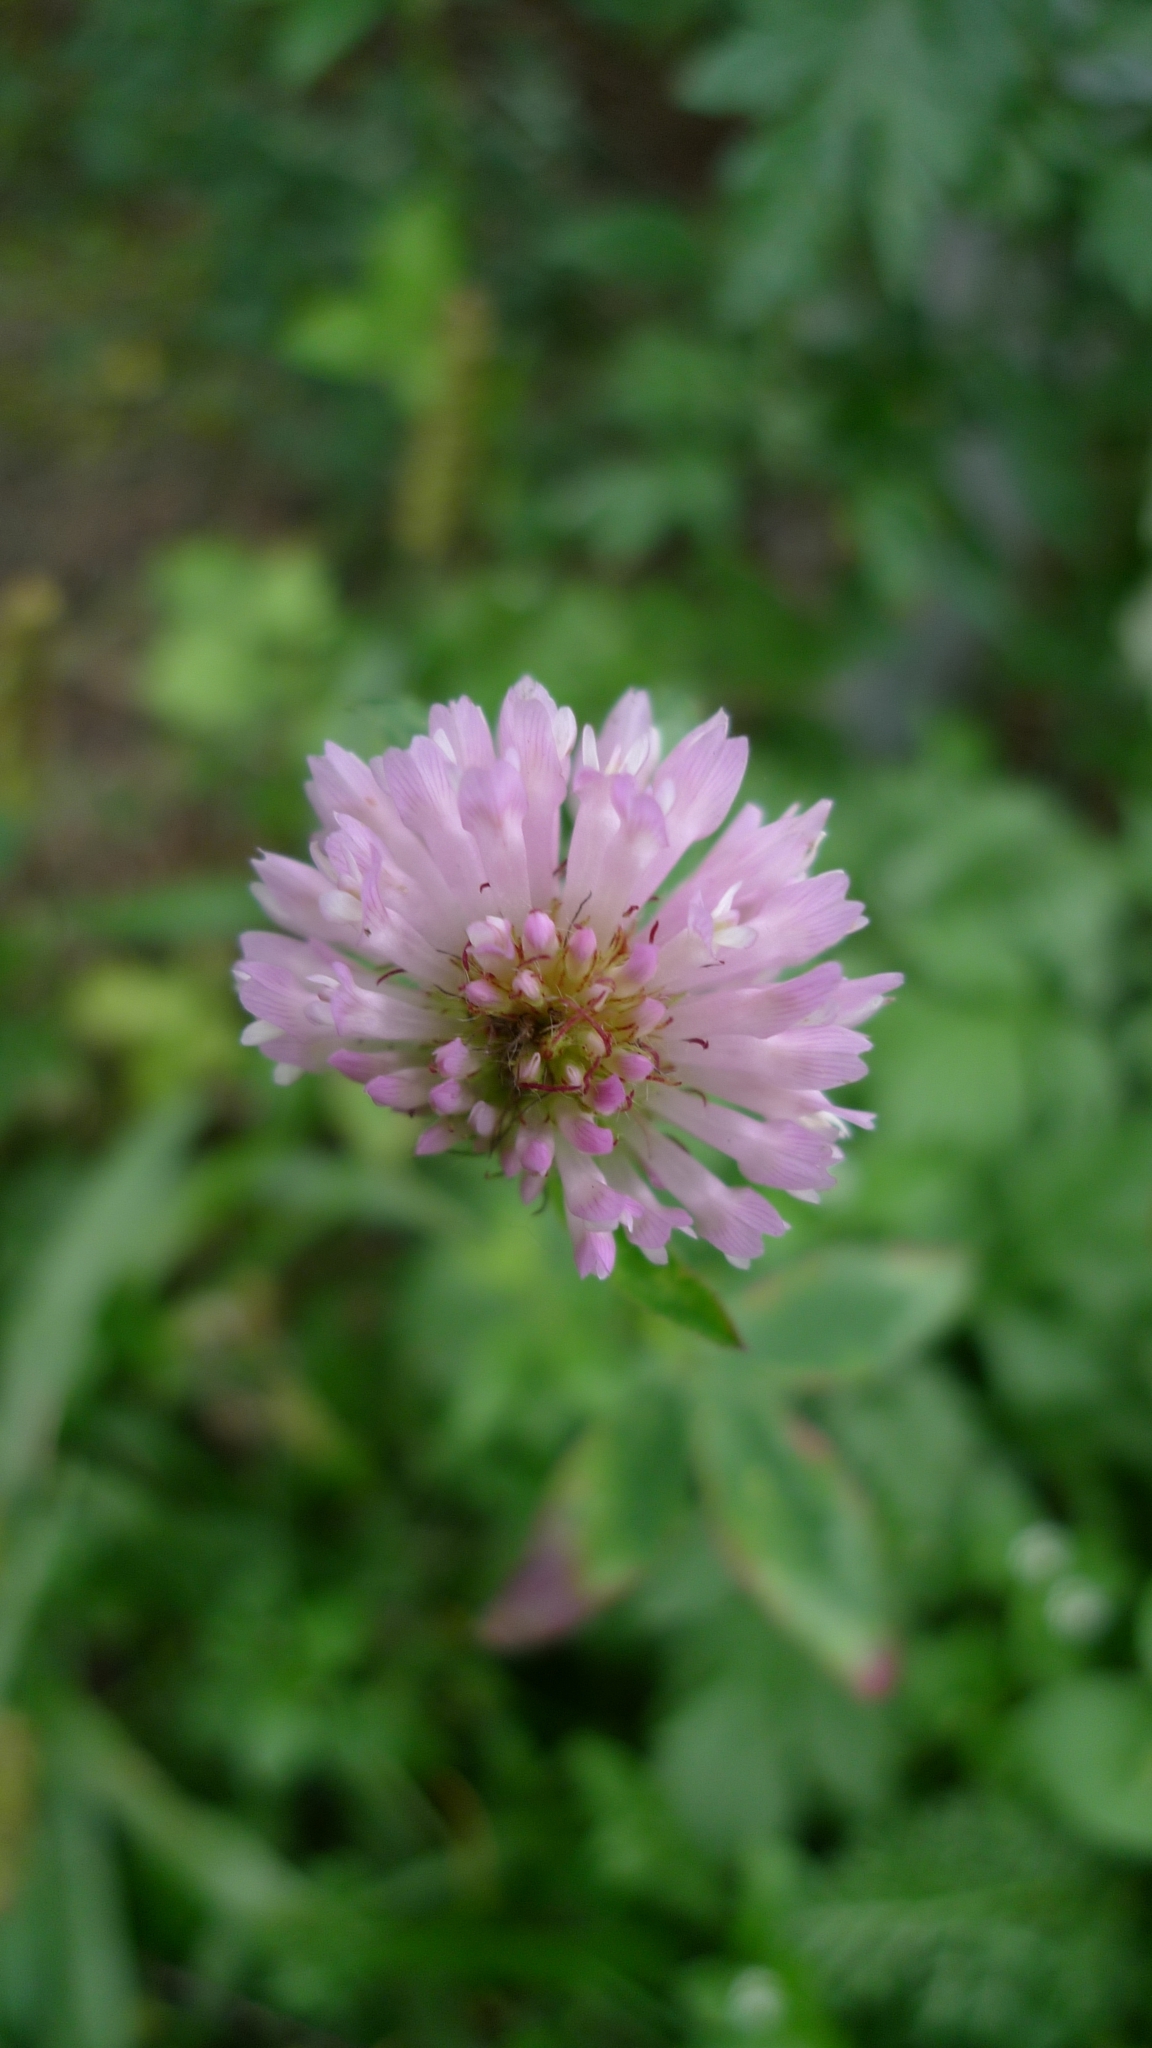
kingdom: Plantae
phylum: Tracheophyta
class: Magnoliopsida
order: Fabales
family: Fabaceae
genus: Trifolium
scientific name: Trifolium pratense
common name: Red clover
